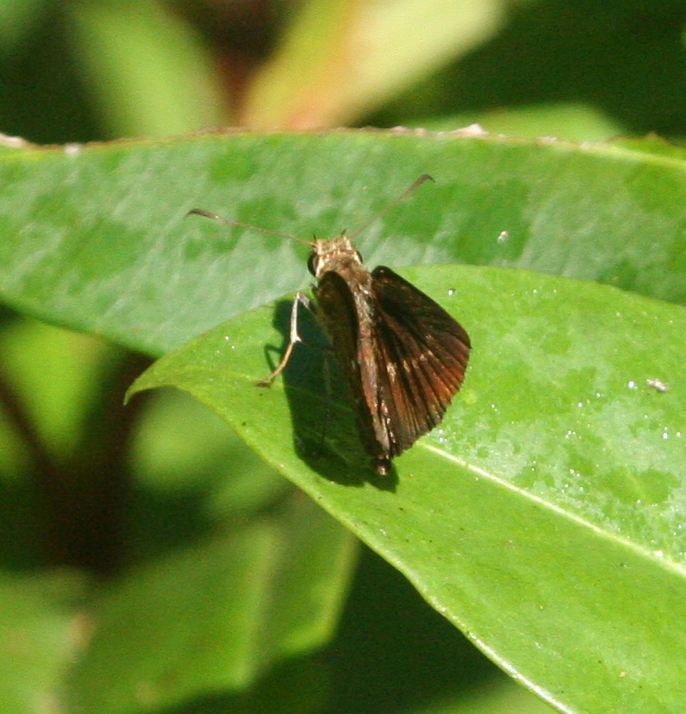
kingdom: Animalia
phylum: Arthropoda
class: Insecta
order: Lepidoptera
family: Hesperiidae
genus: Iambrix
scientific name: Iambrix salsala
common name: Chestnut bob
